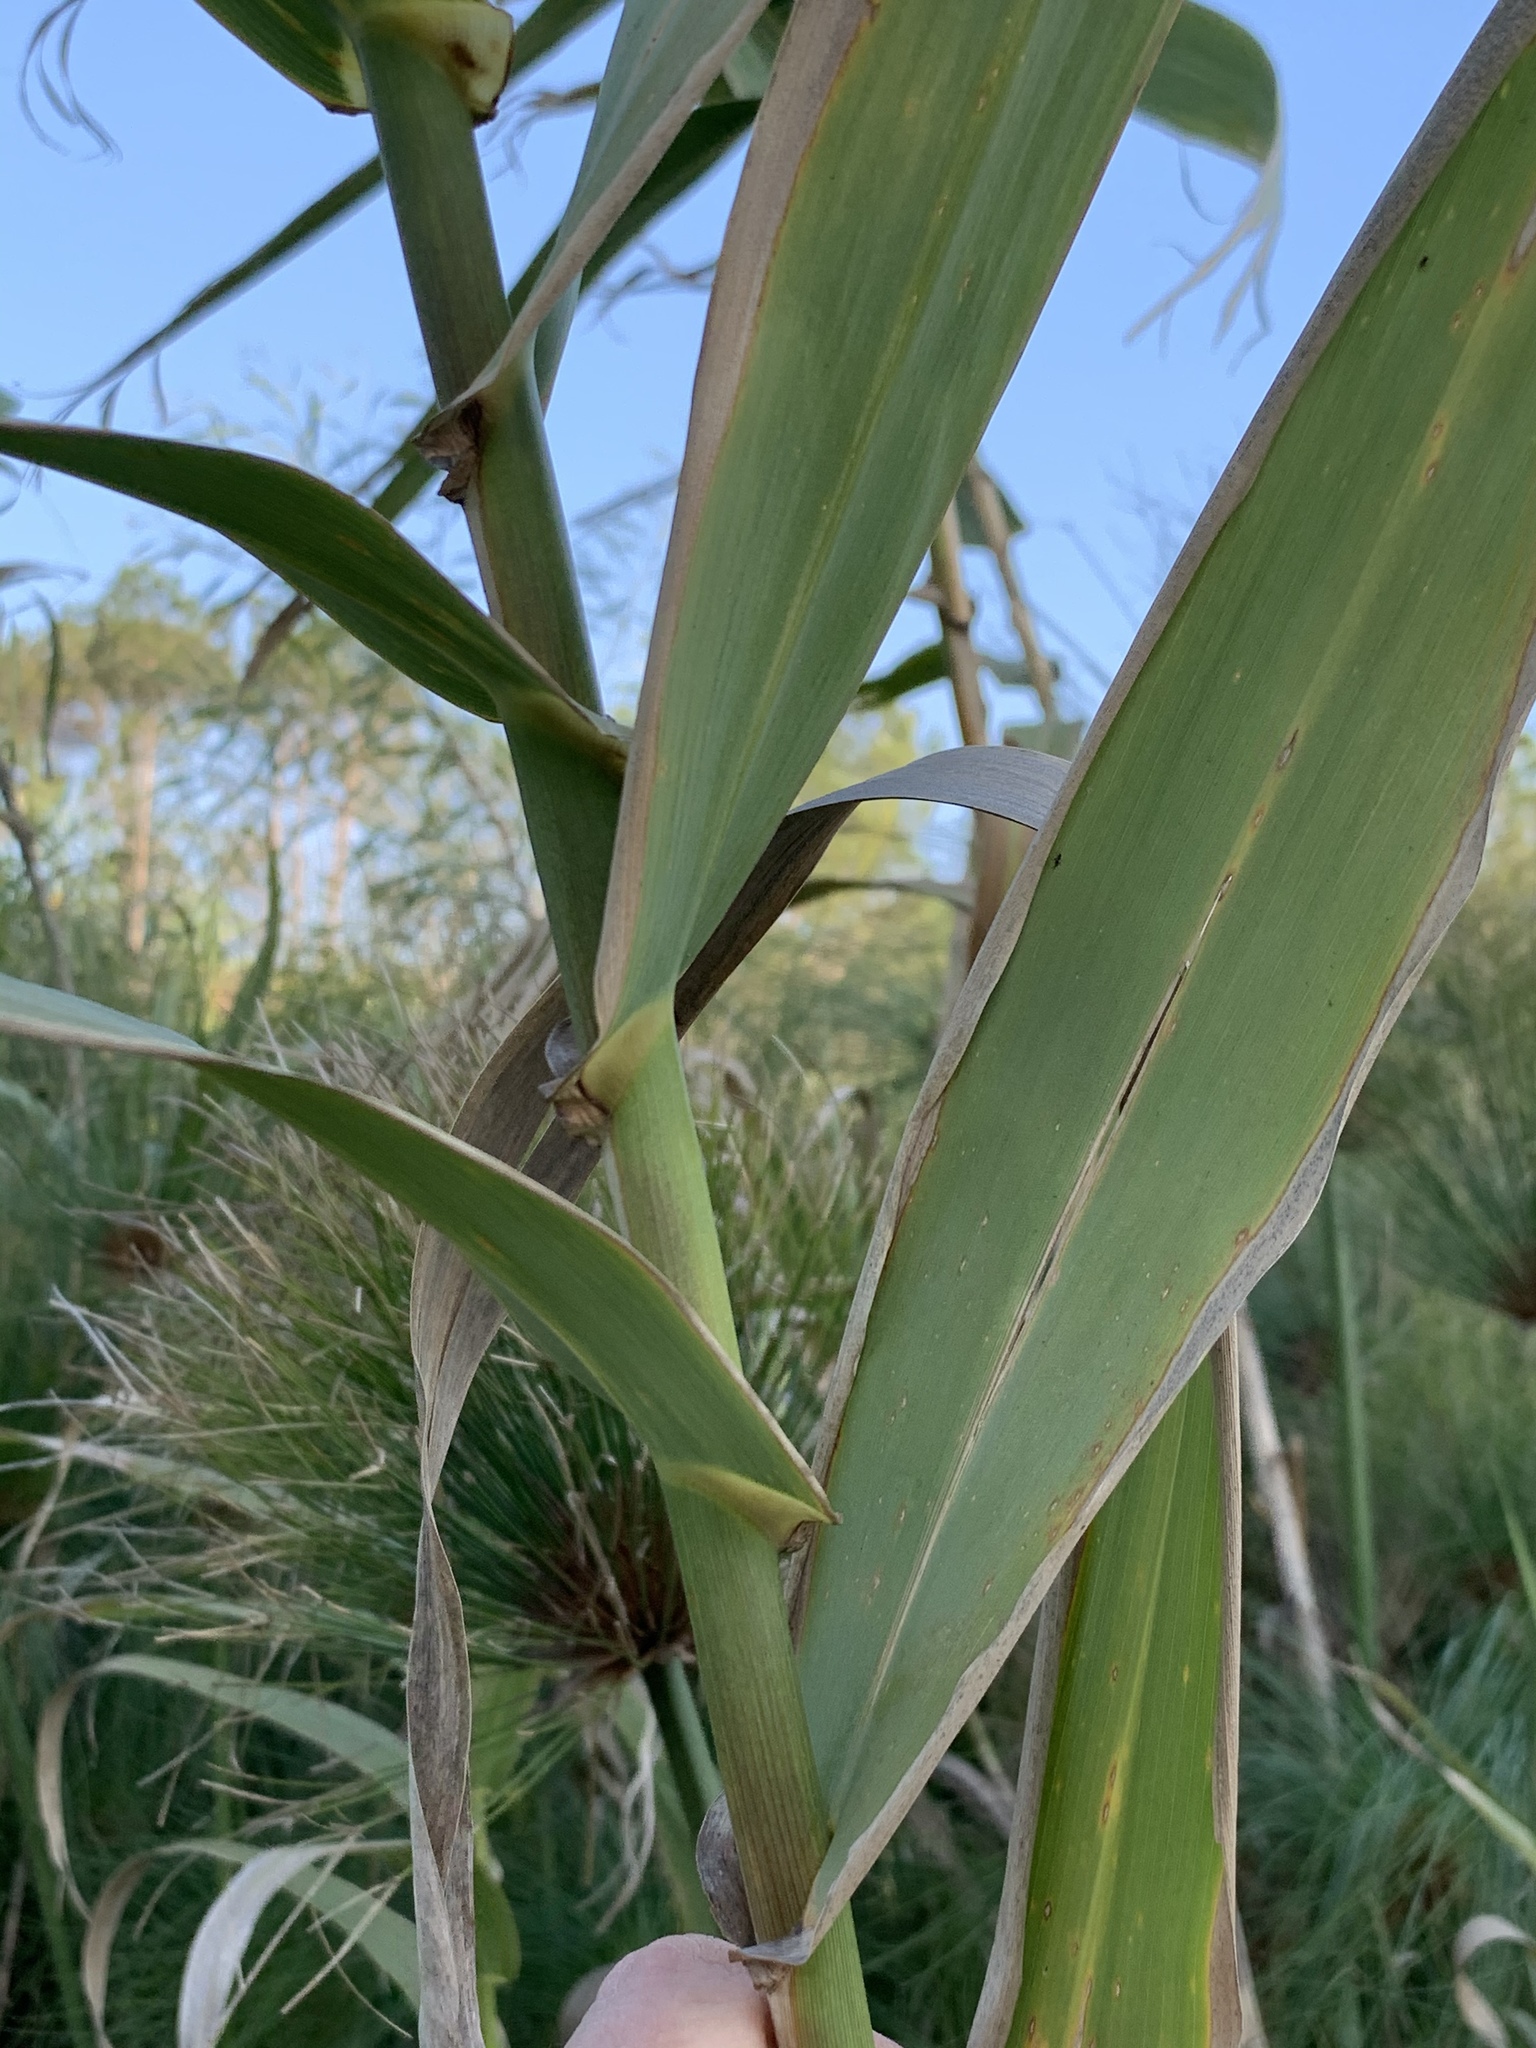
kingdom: Plantae
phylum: Tracheophyta
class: Liliopsida
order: Poales
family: Poaceae
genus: Arundo
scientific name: Arundo donax
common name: Giant reed
